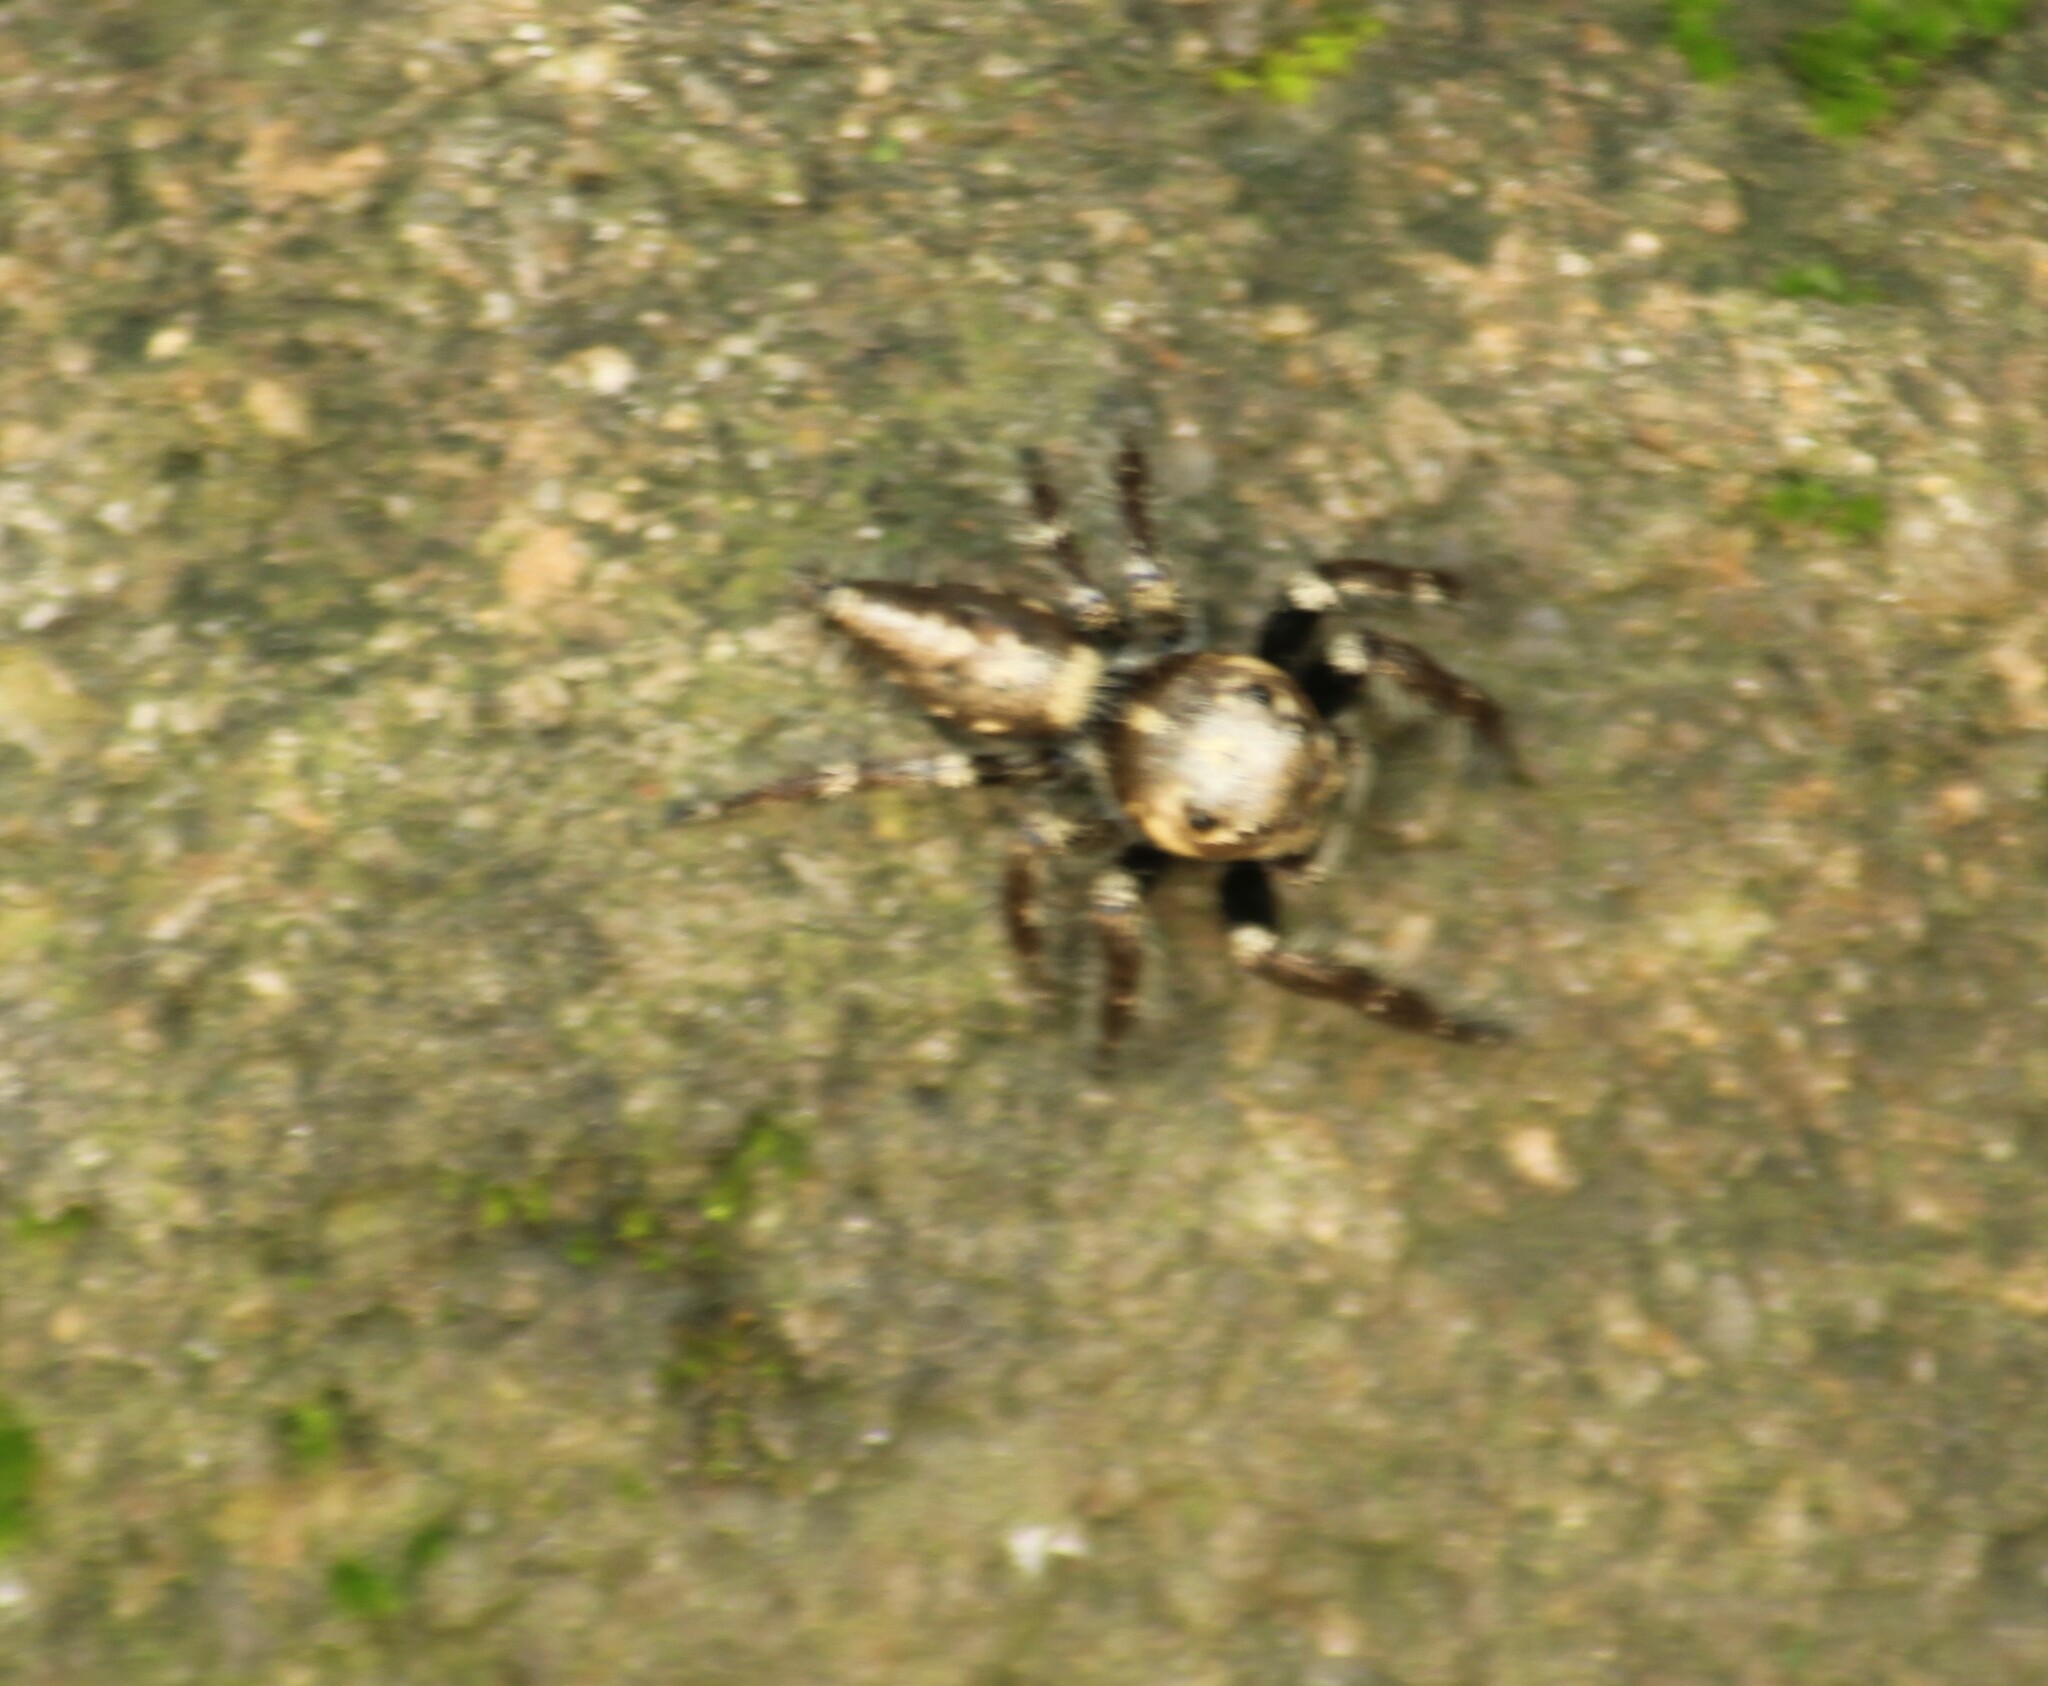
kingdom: Animalia
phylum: Arthropoda
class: Arachnida
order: Araneae
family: Salticidae
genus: Hyllus
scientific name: Hyllus semicupreus
